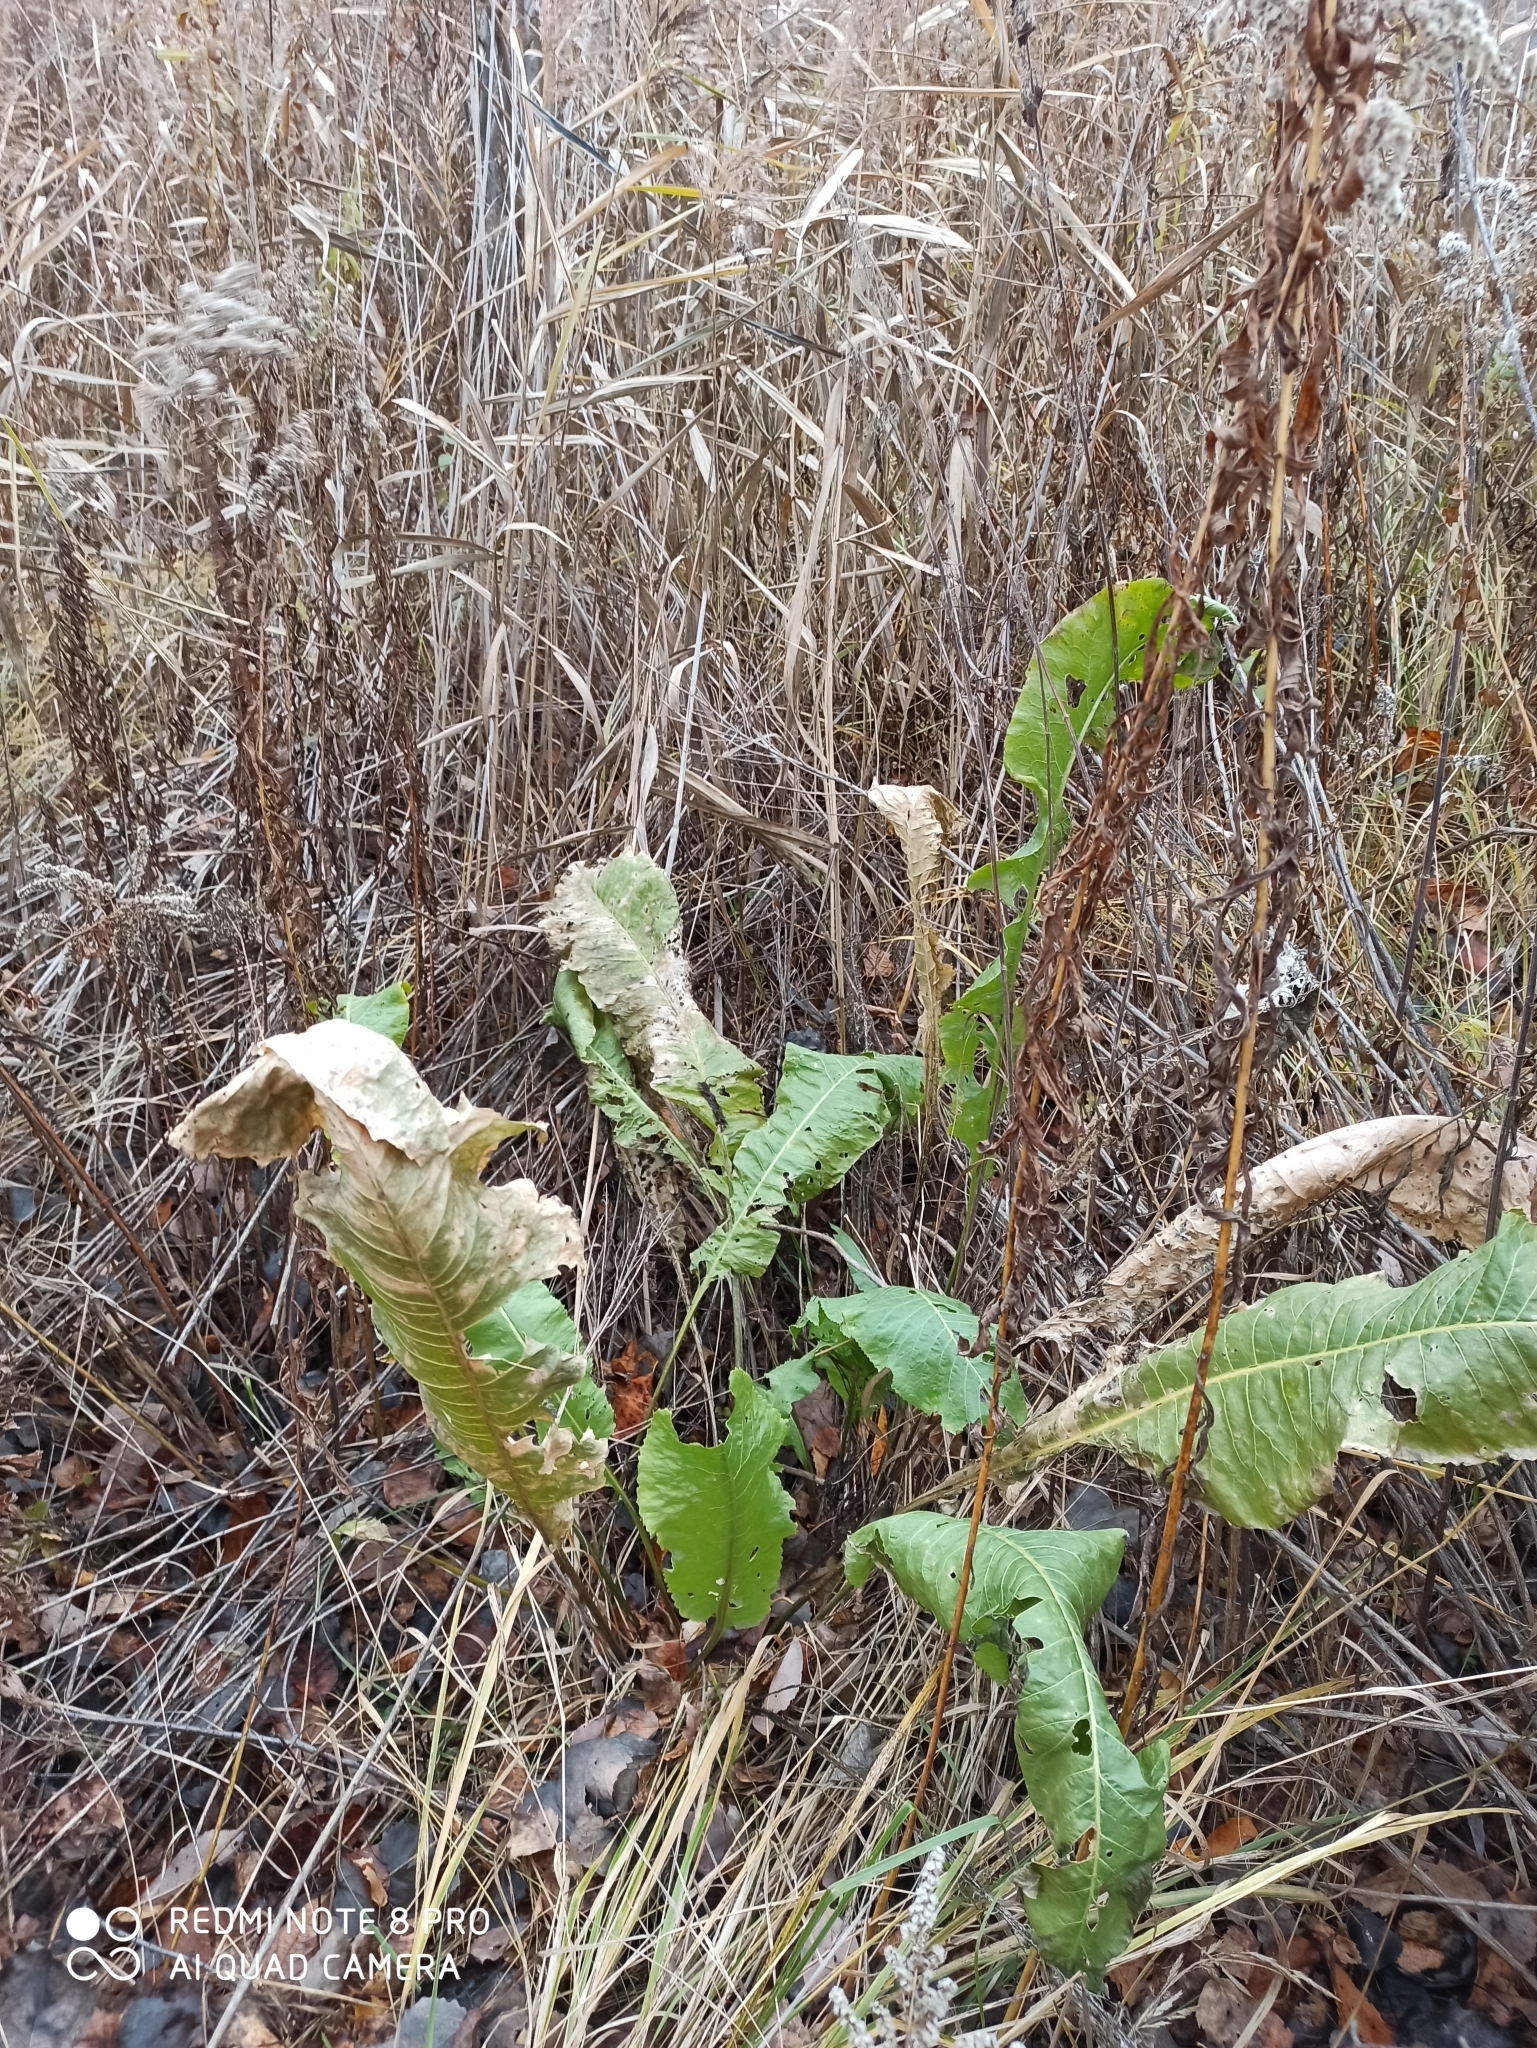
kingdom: Plantae
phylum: Tracheophyta
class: Magnoliopsida
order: Brassicales
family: Brassicaceae
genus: Armoracia
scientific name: Armoracia rusticana
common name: Horseradish
